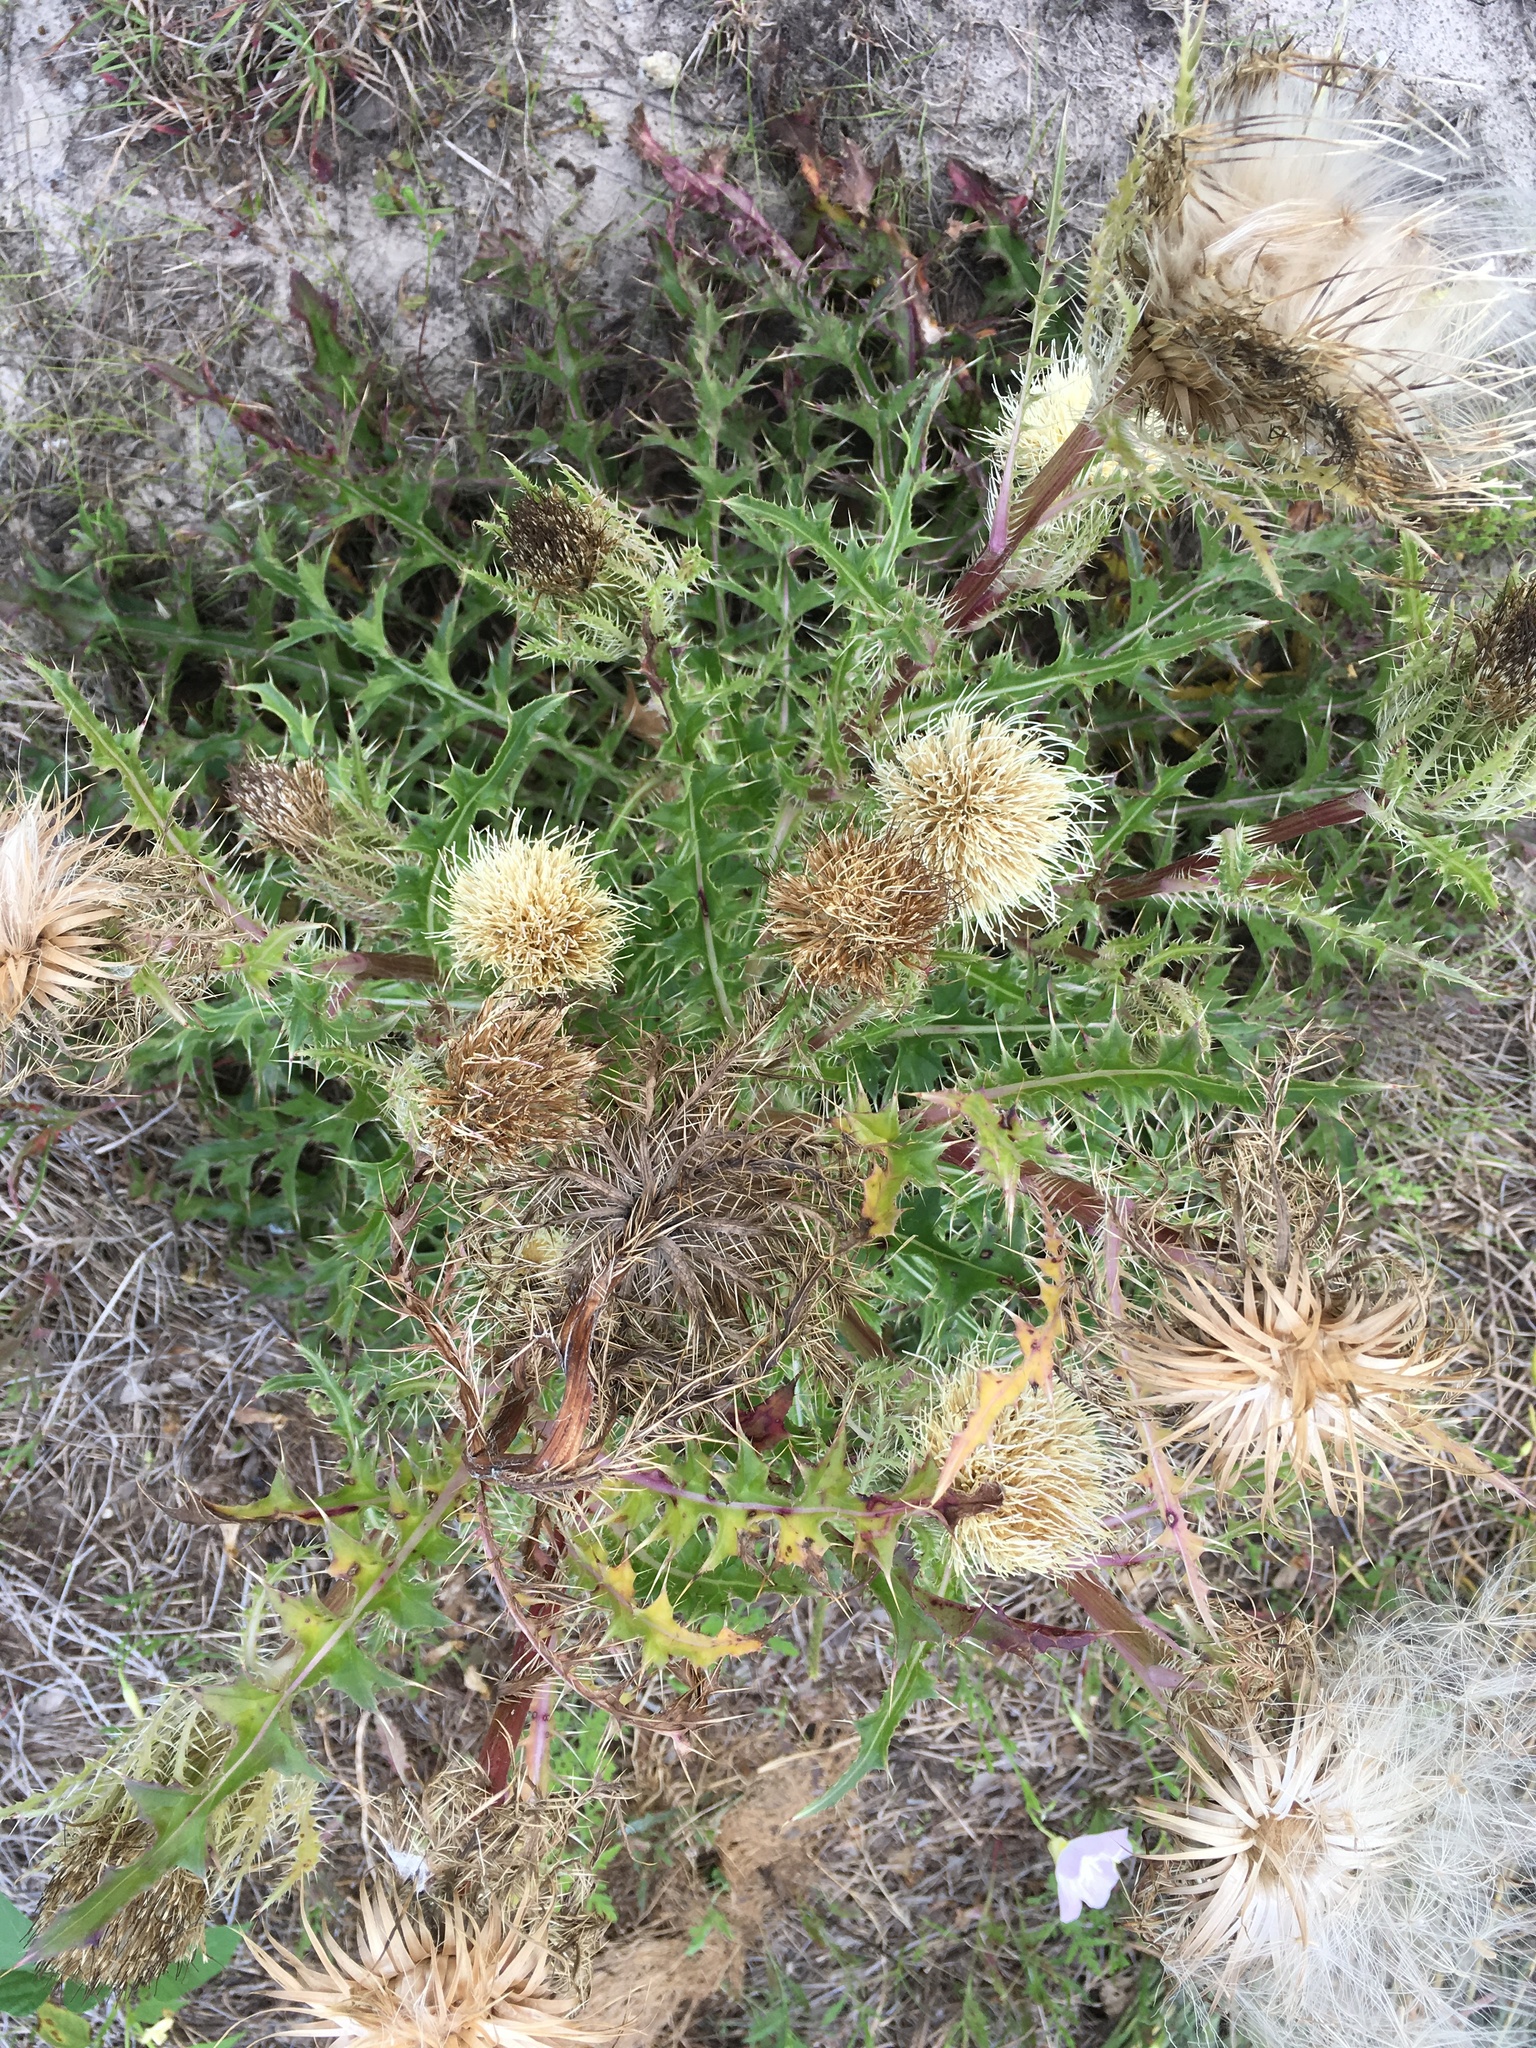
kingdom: Plantae
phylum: Tracheophyta
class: Magnoliopsida
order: Asterales
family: Asteraceae
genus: Cirsium
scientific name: Cirsium horridulum
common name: Bristly thistle
